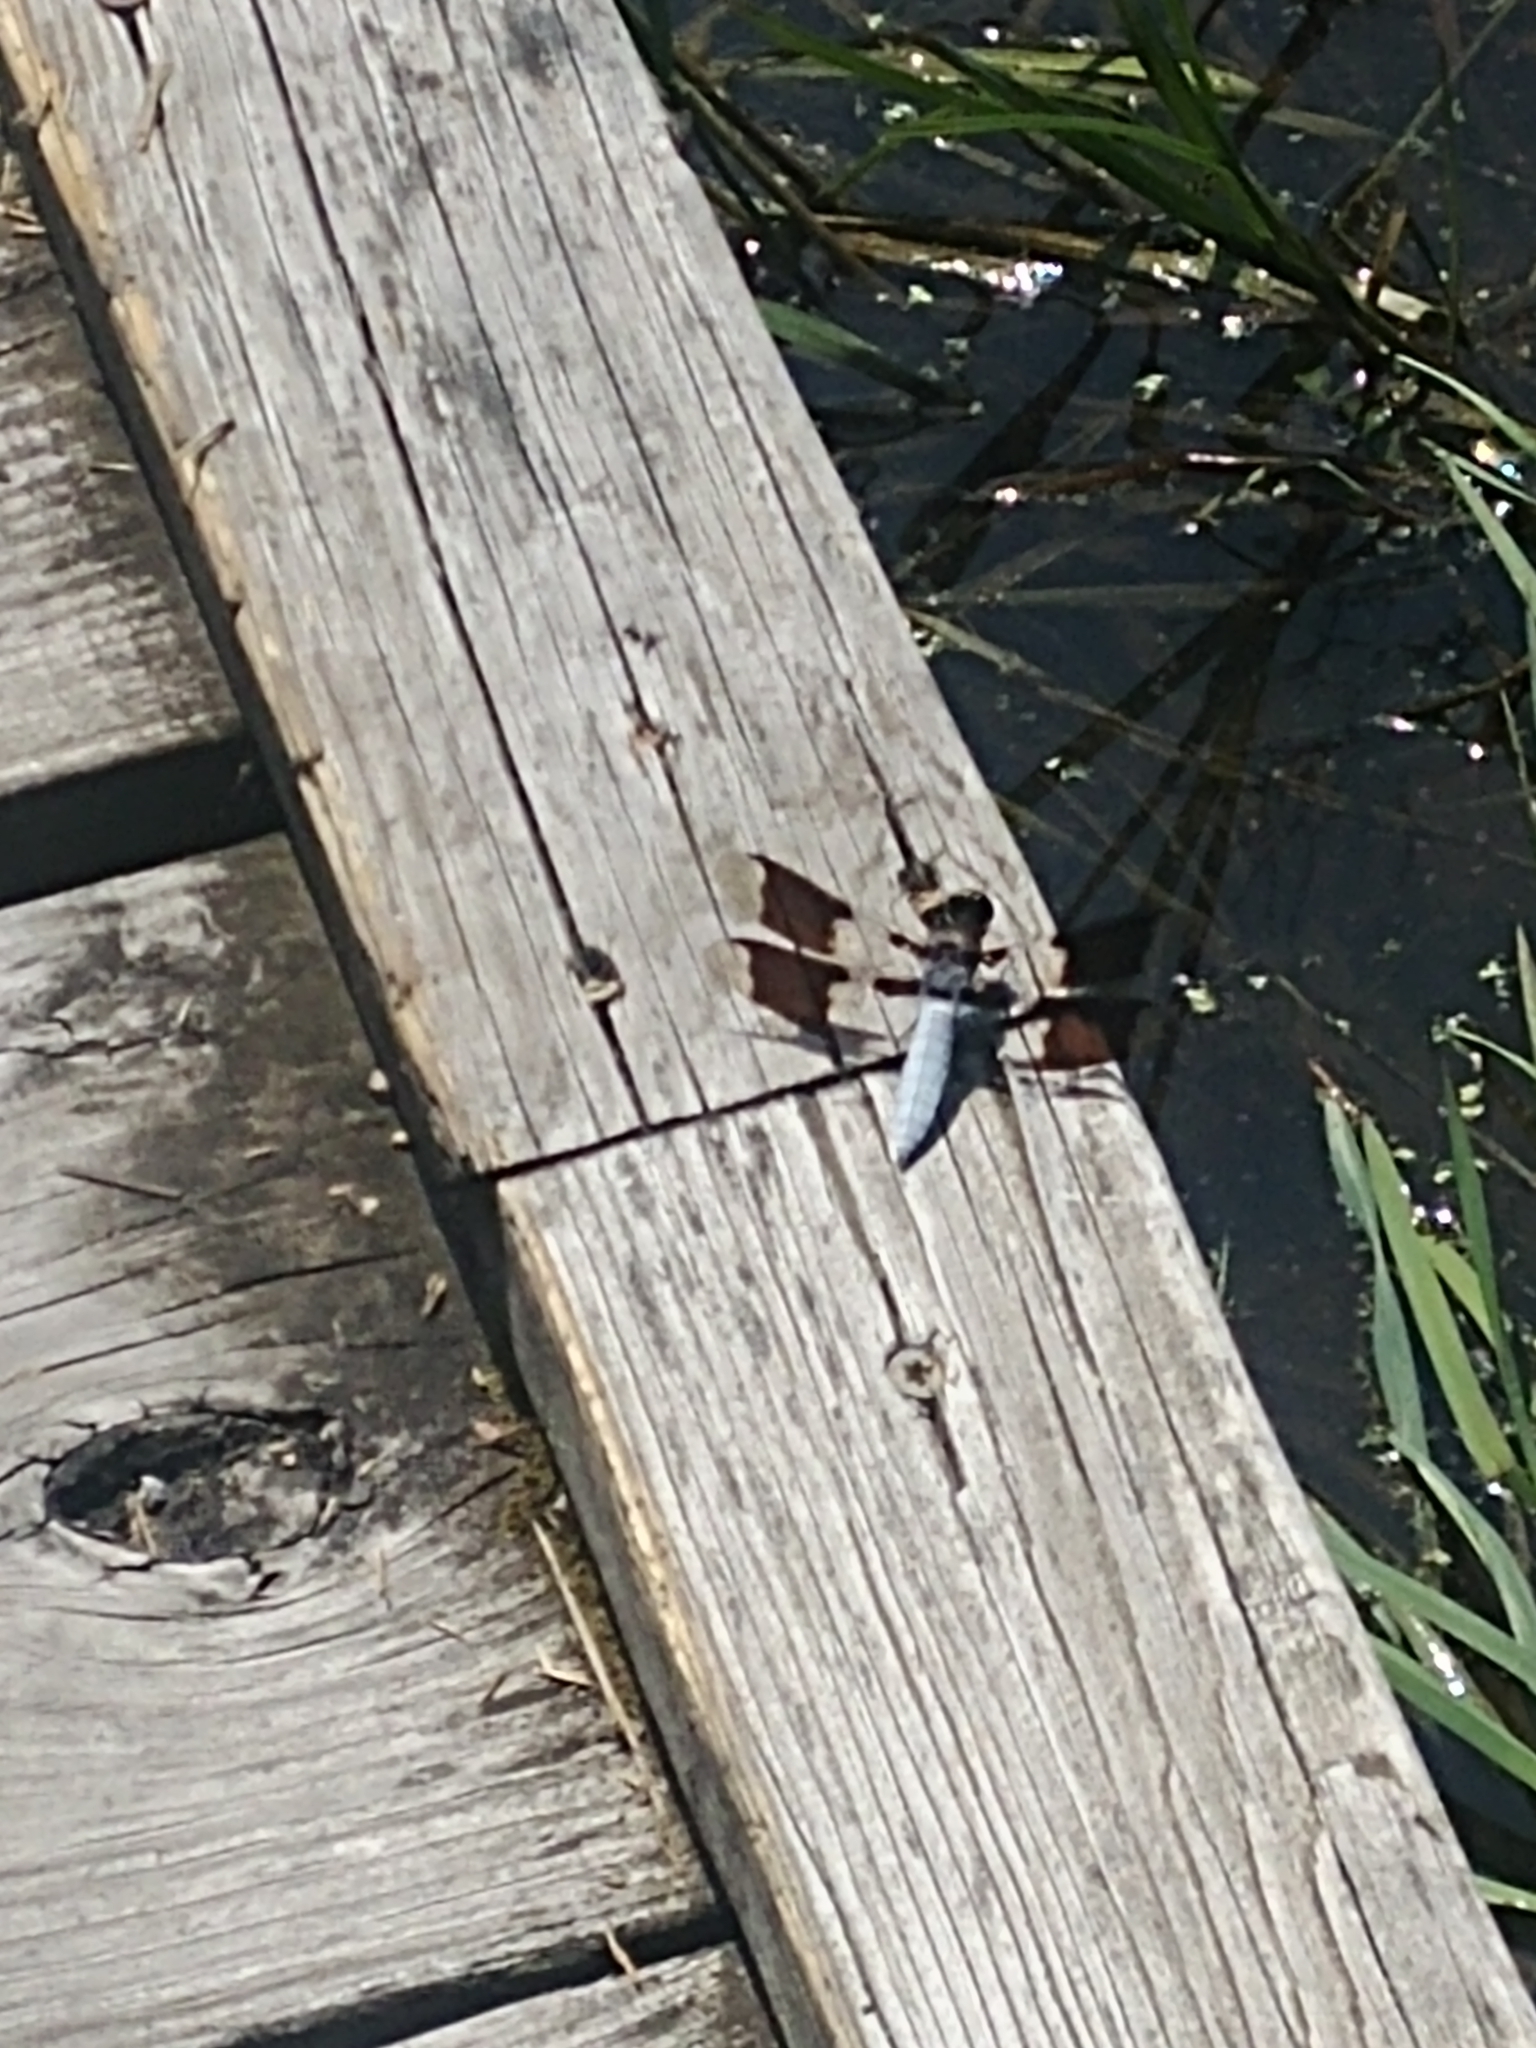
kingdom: Animalia
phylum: Arthropoda
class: Insecta
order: Odonata
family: Libellulidae
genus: Plathemis
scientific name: Plathemis lydia
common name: Common whitetail
